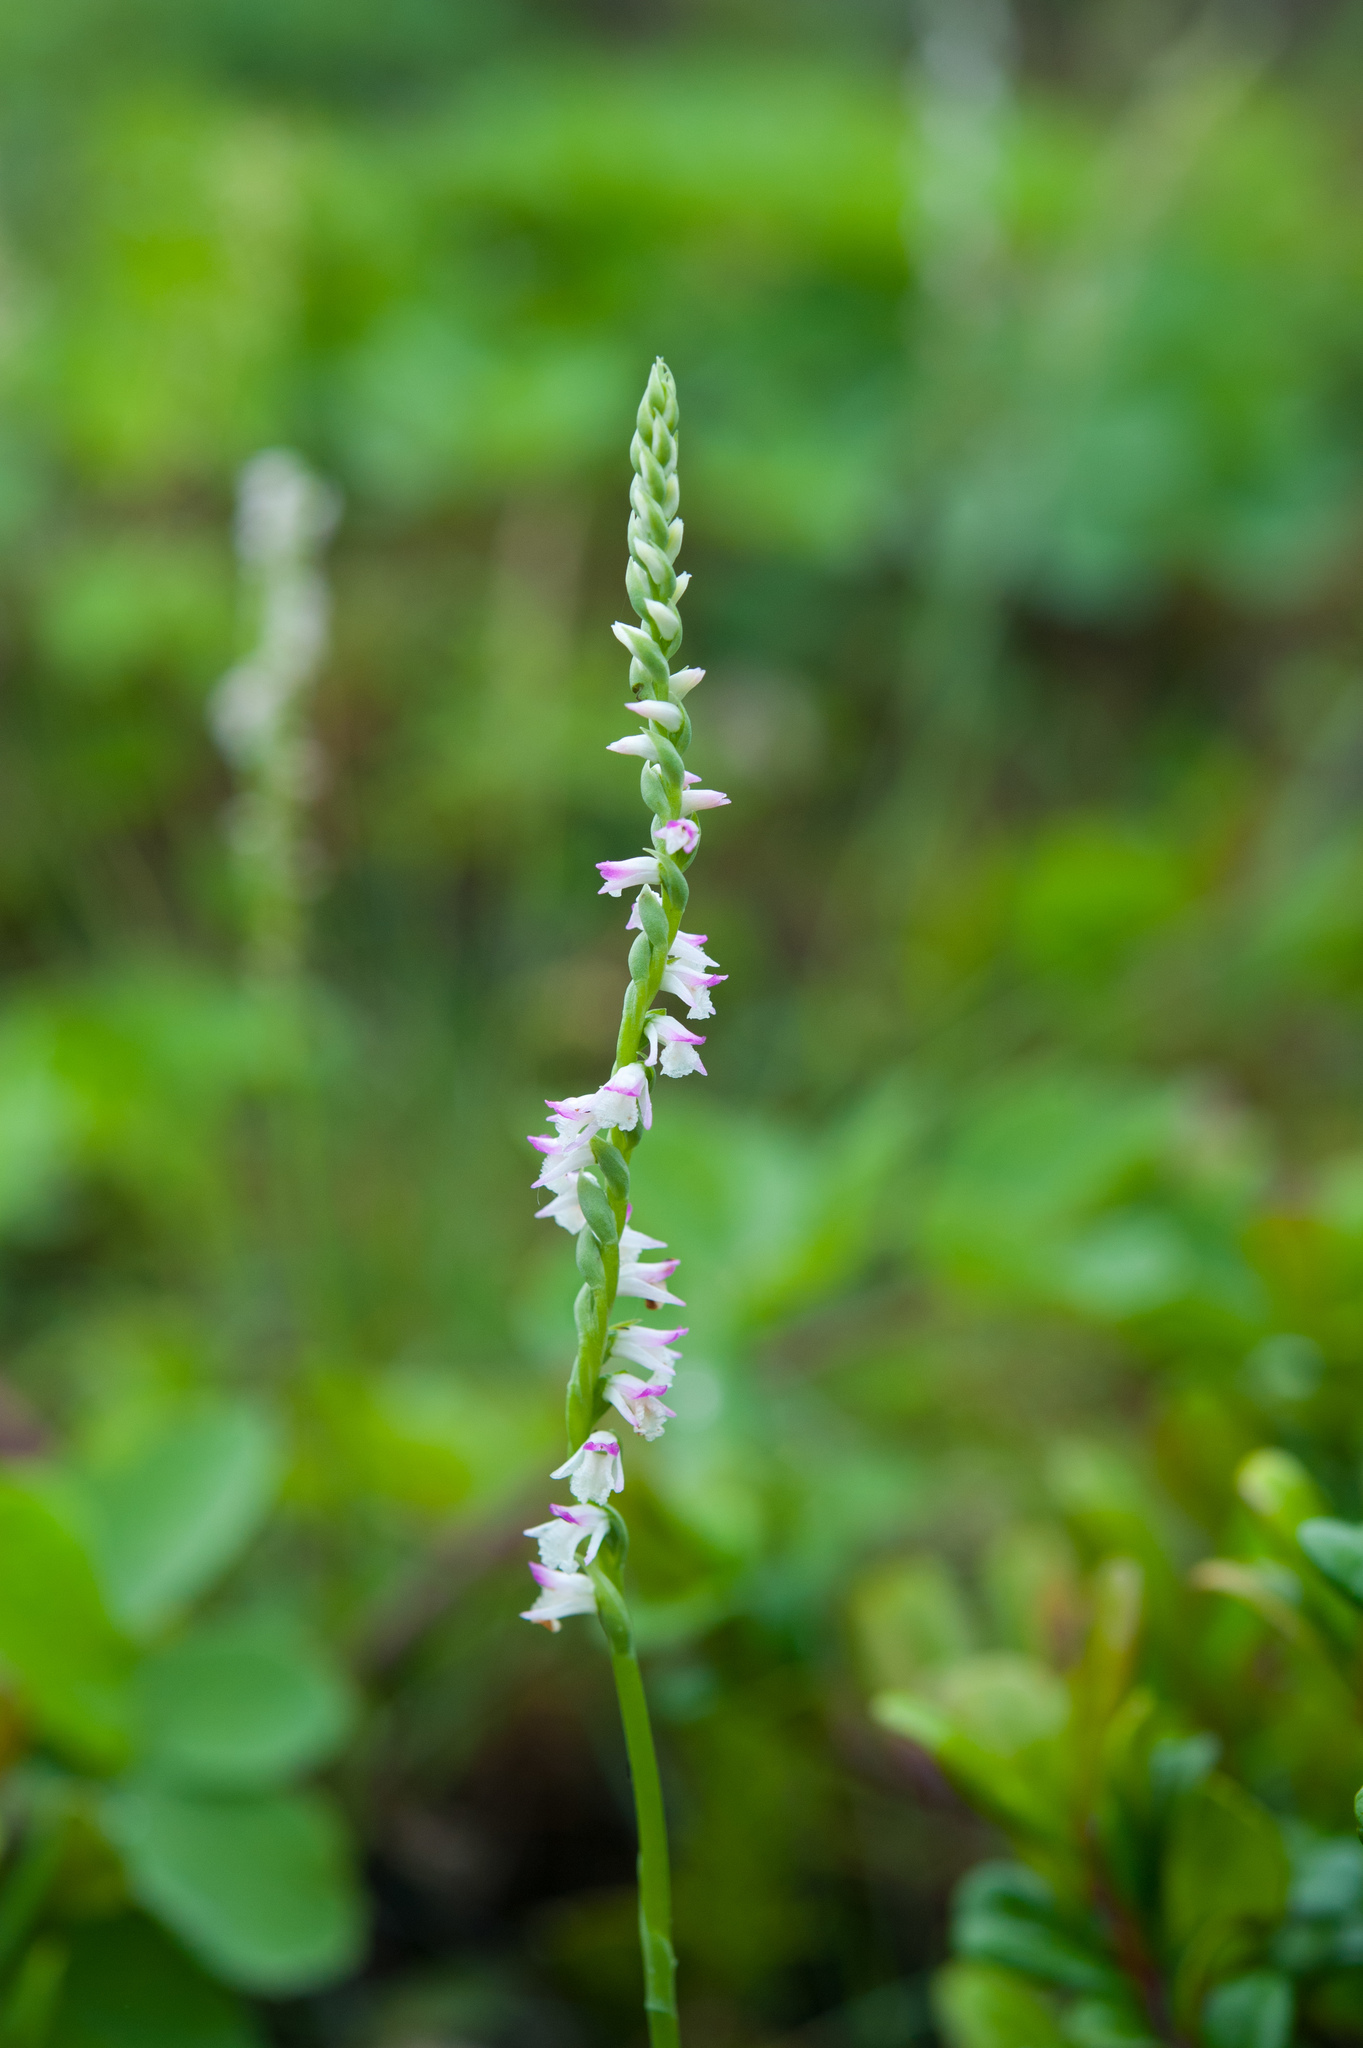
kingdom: Plantae
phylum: Tracheophyta
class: Liliopsida
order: Asparagales
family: Orchidaceae
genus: Spiranthes
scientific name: Spiranthes sinensis
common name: Chinese spiranthes
